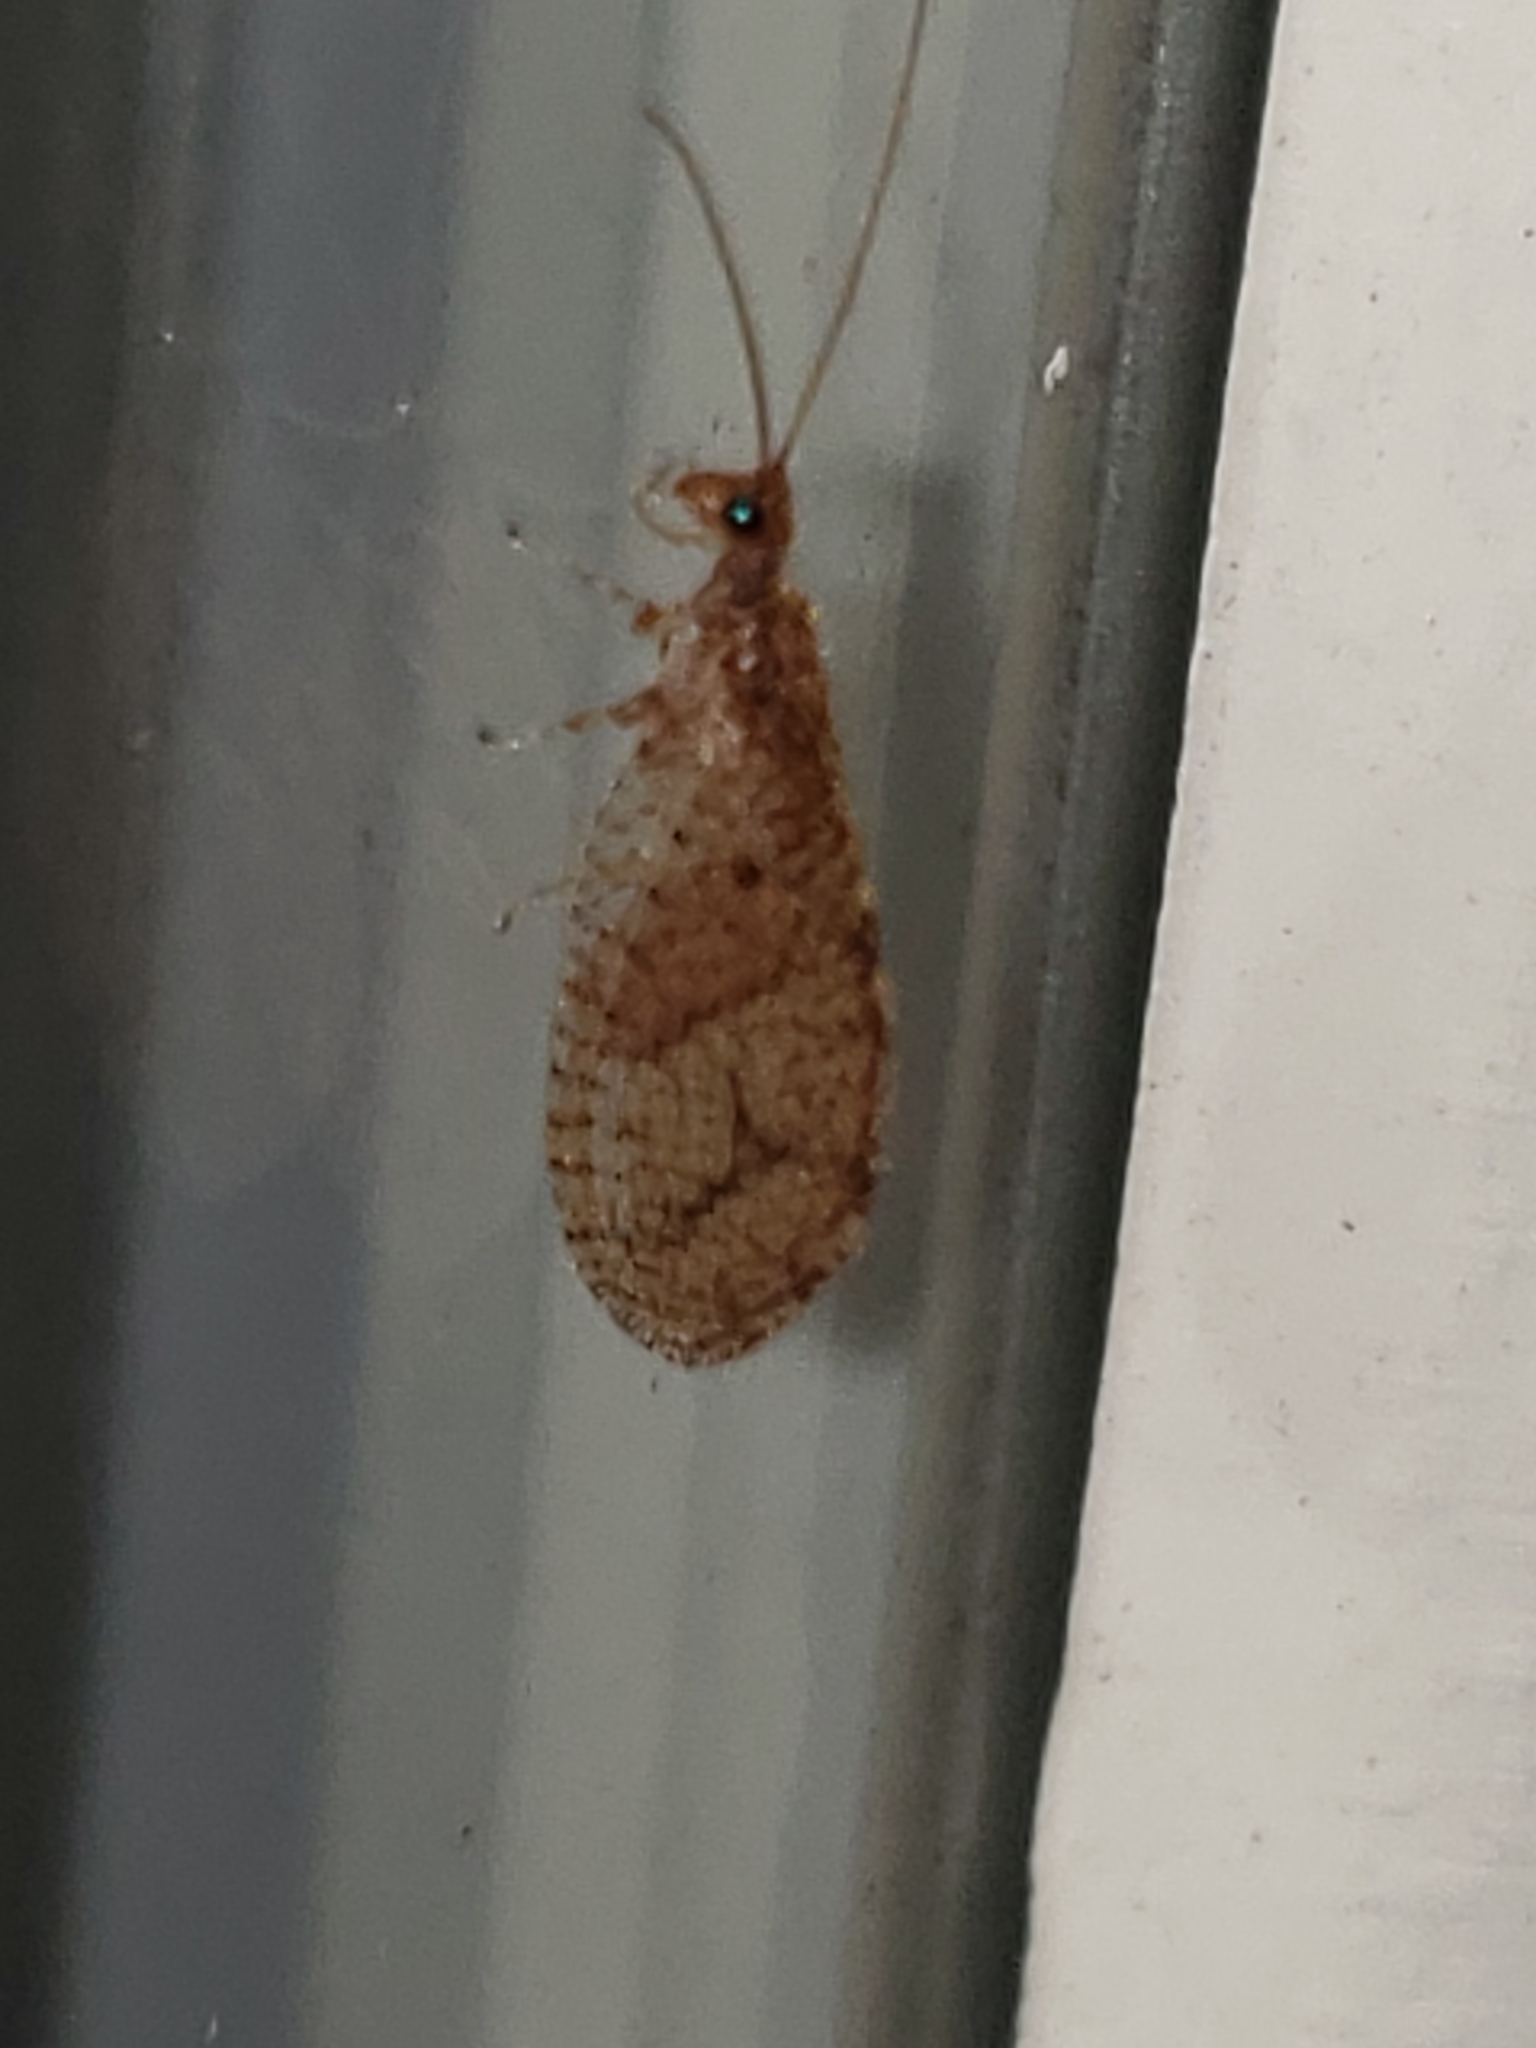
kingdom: Animalia
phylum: Arthropoda
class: Insecta
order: Neuroptera
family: Hemerobiidae
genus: Micromus
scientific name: Micromus posticus
